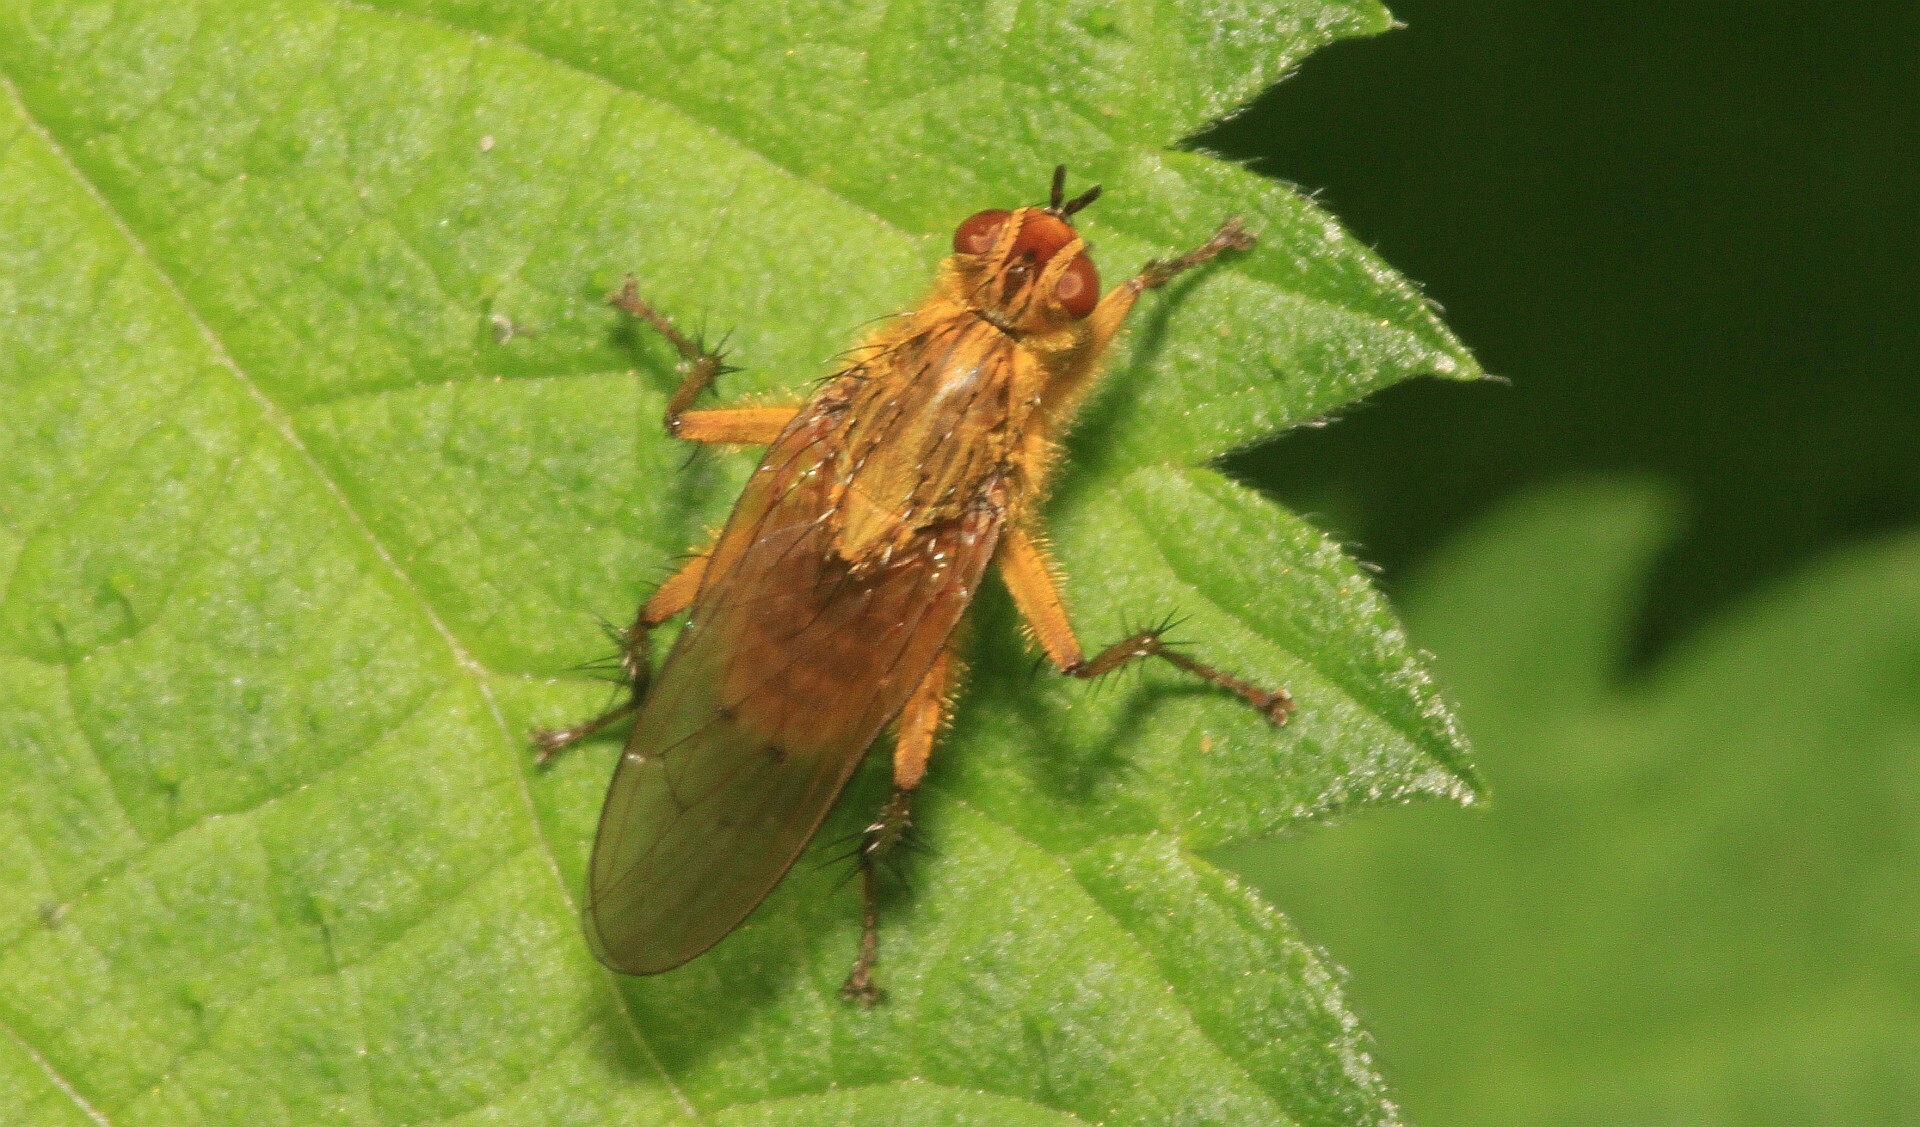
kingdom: Animalia
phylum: Arthropoda
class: Insecta
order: Diptera
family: Scathophagidae
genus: Scathophaga
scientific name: Scathophaga stercoraria
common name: Yellow dung fly
